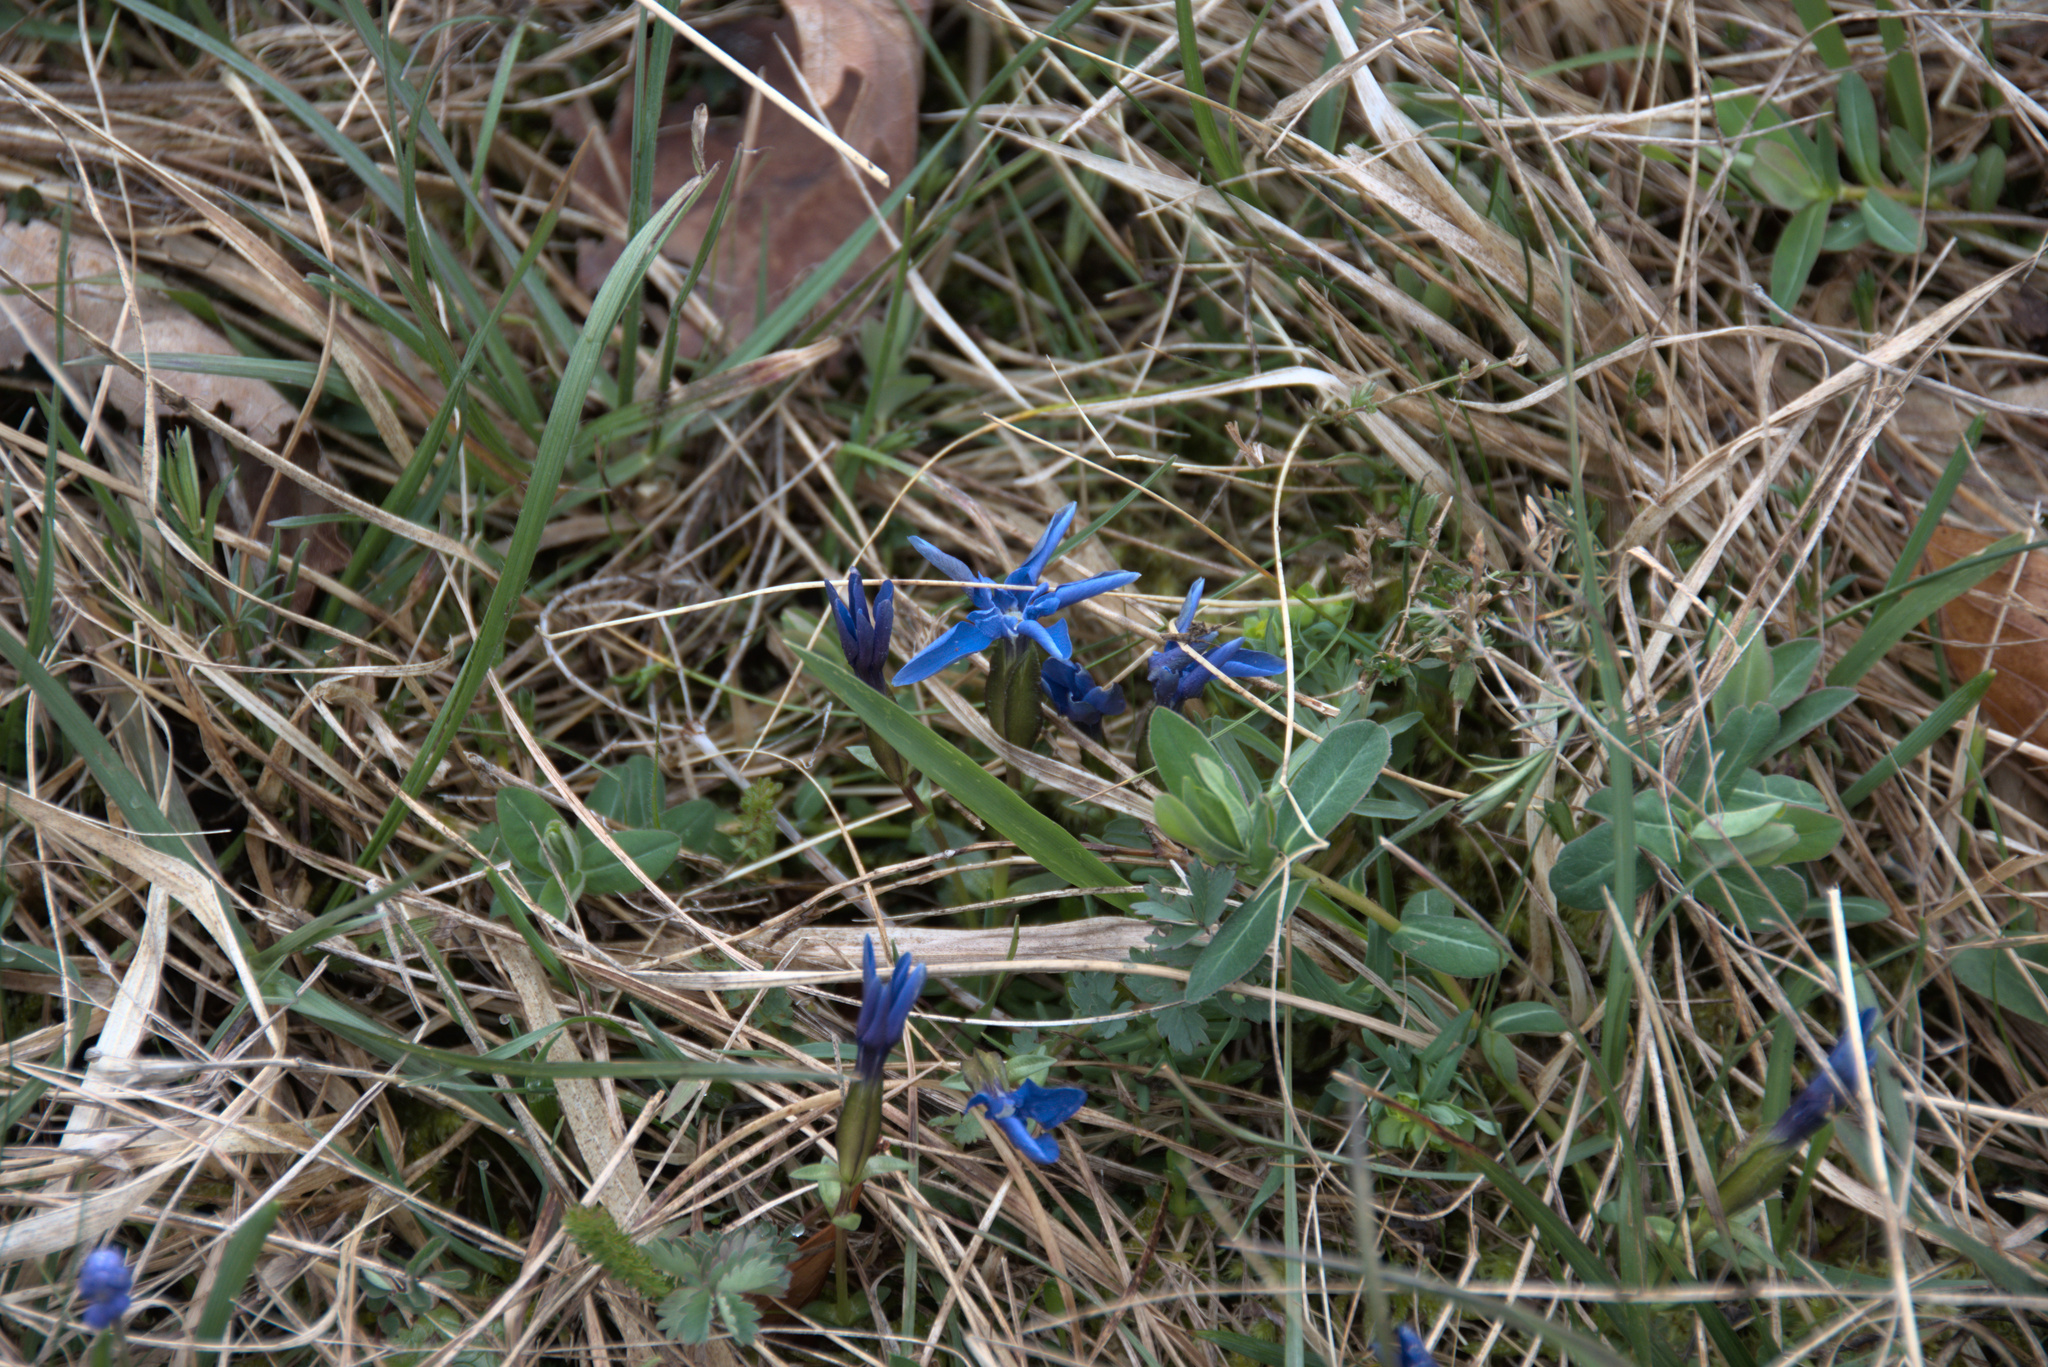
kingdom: Plantae
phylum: Tracheophyta
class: Magnoliopsida
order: Gentianales
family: Gentianaceae
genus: Gentiana
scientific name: Gentiana verna
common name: Spring gentian
